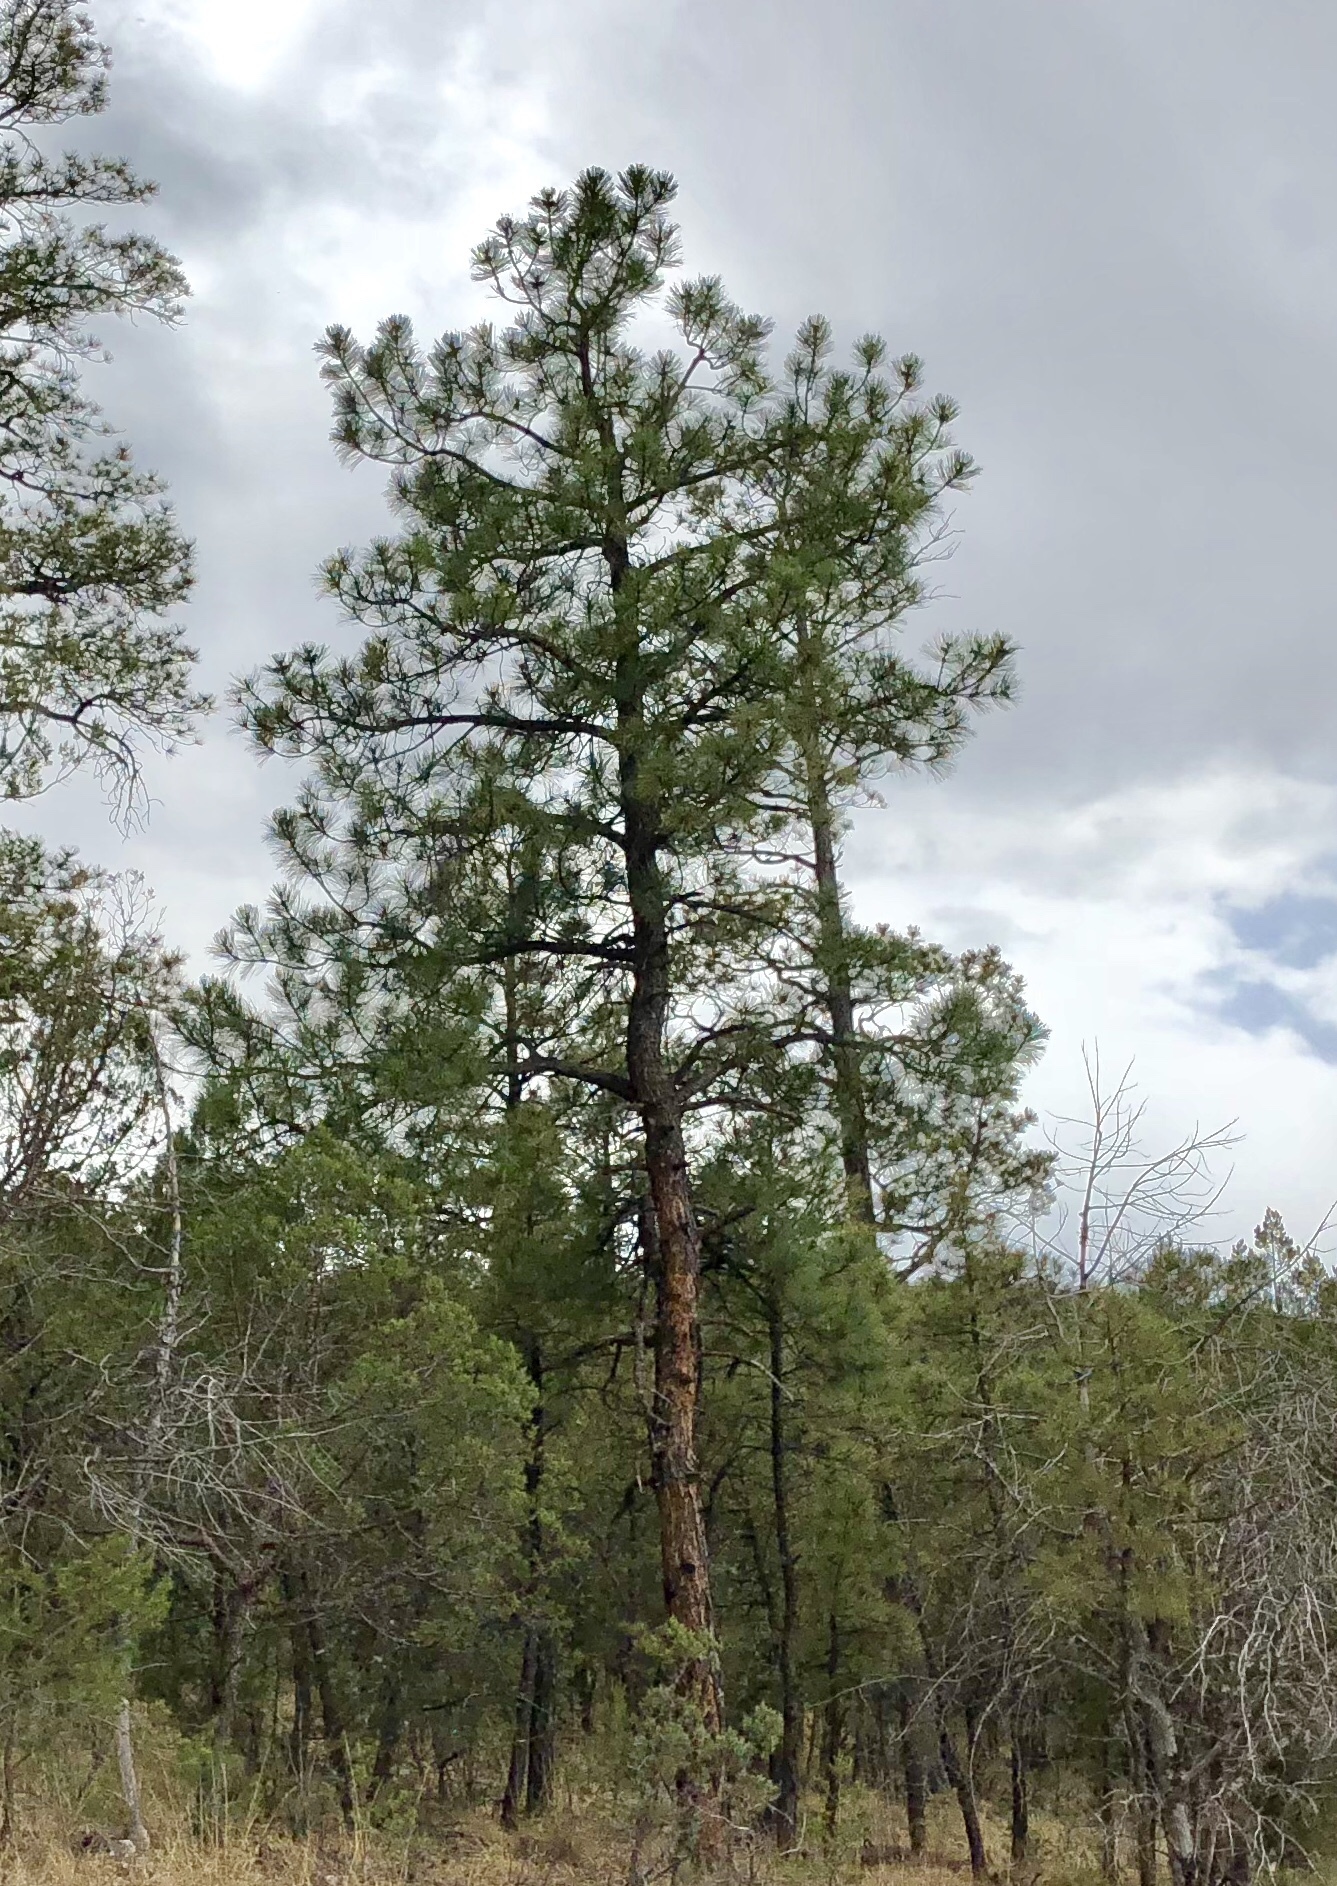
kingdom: Plantae
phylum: Tracheophyta
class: Pinopsida
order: Pinales
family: Pinaceae
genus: Pinus
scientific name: Pinus ponderosa
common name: Western yellow-pine
